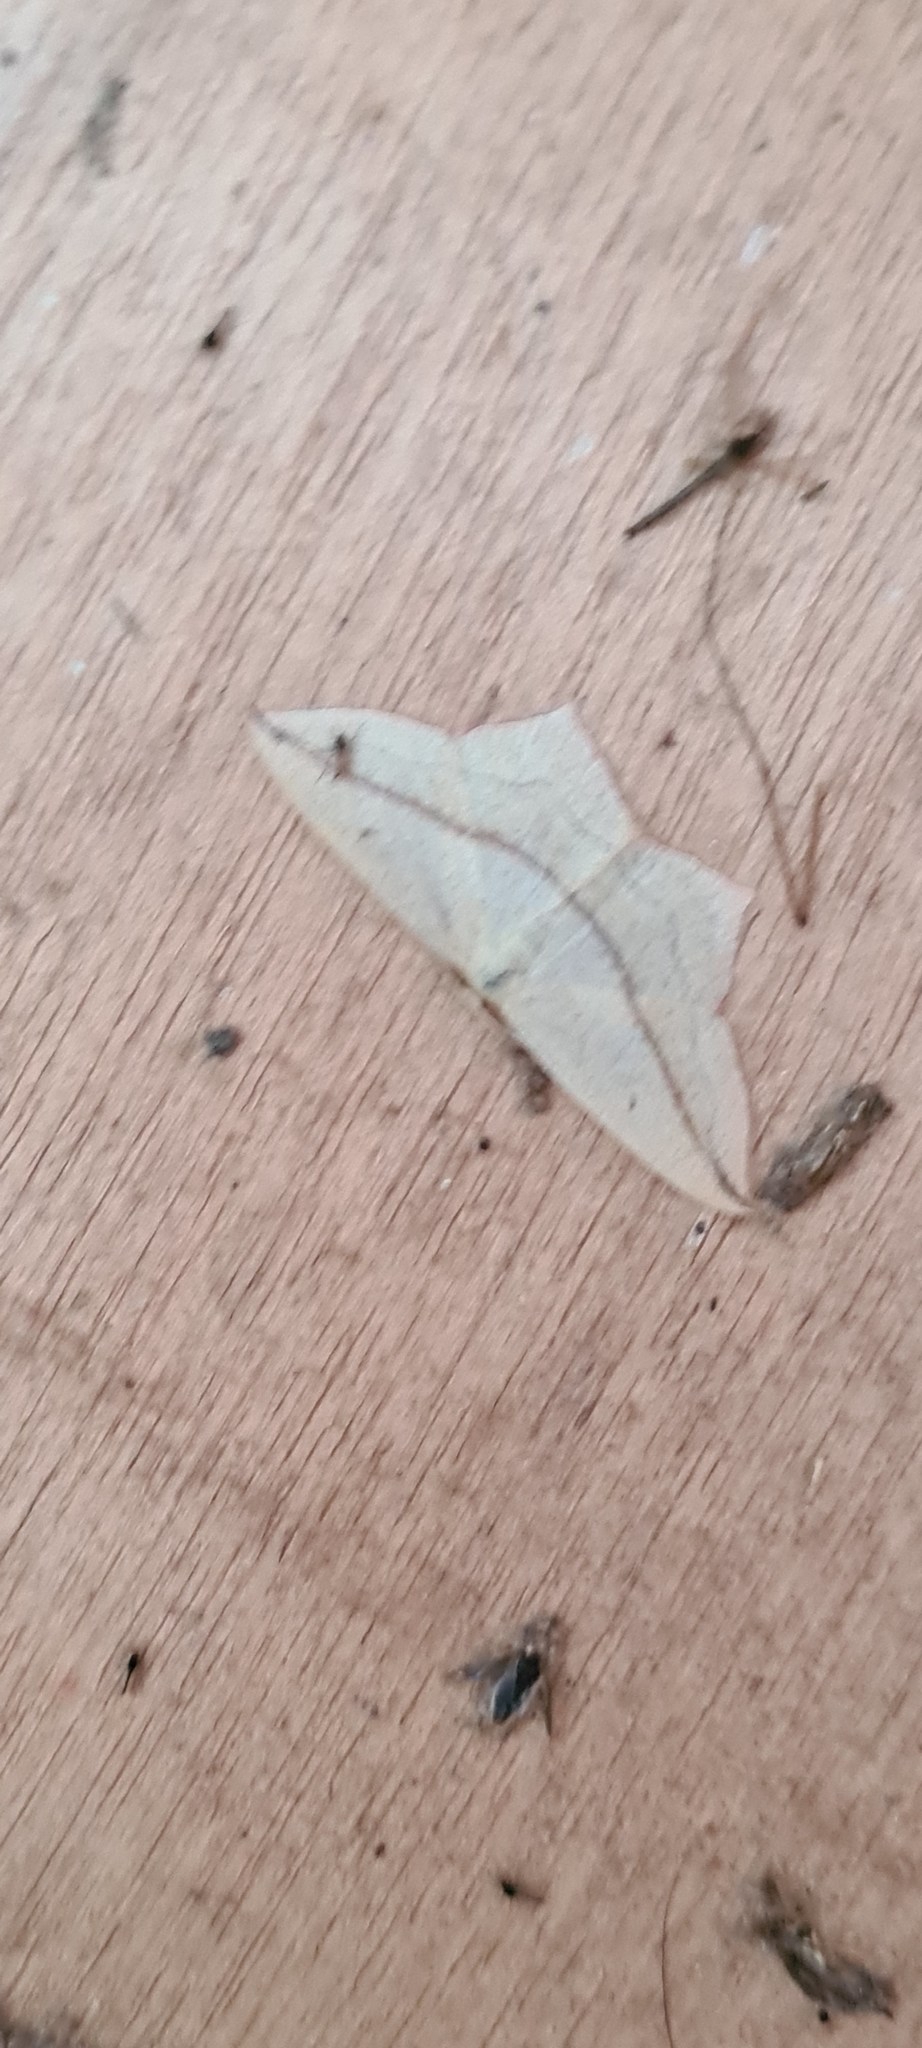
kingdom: Animalia
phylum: Arthropoda
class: Insecta
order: Lepidoptera
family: Geometridae
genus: Timandra
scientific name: Timandra comae
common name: Blood-vein
